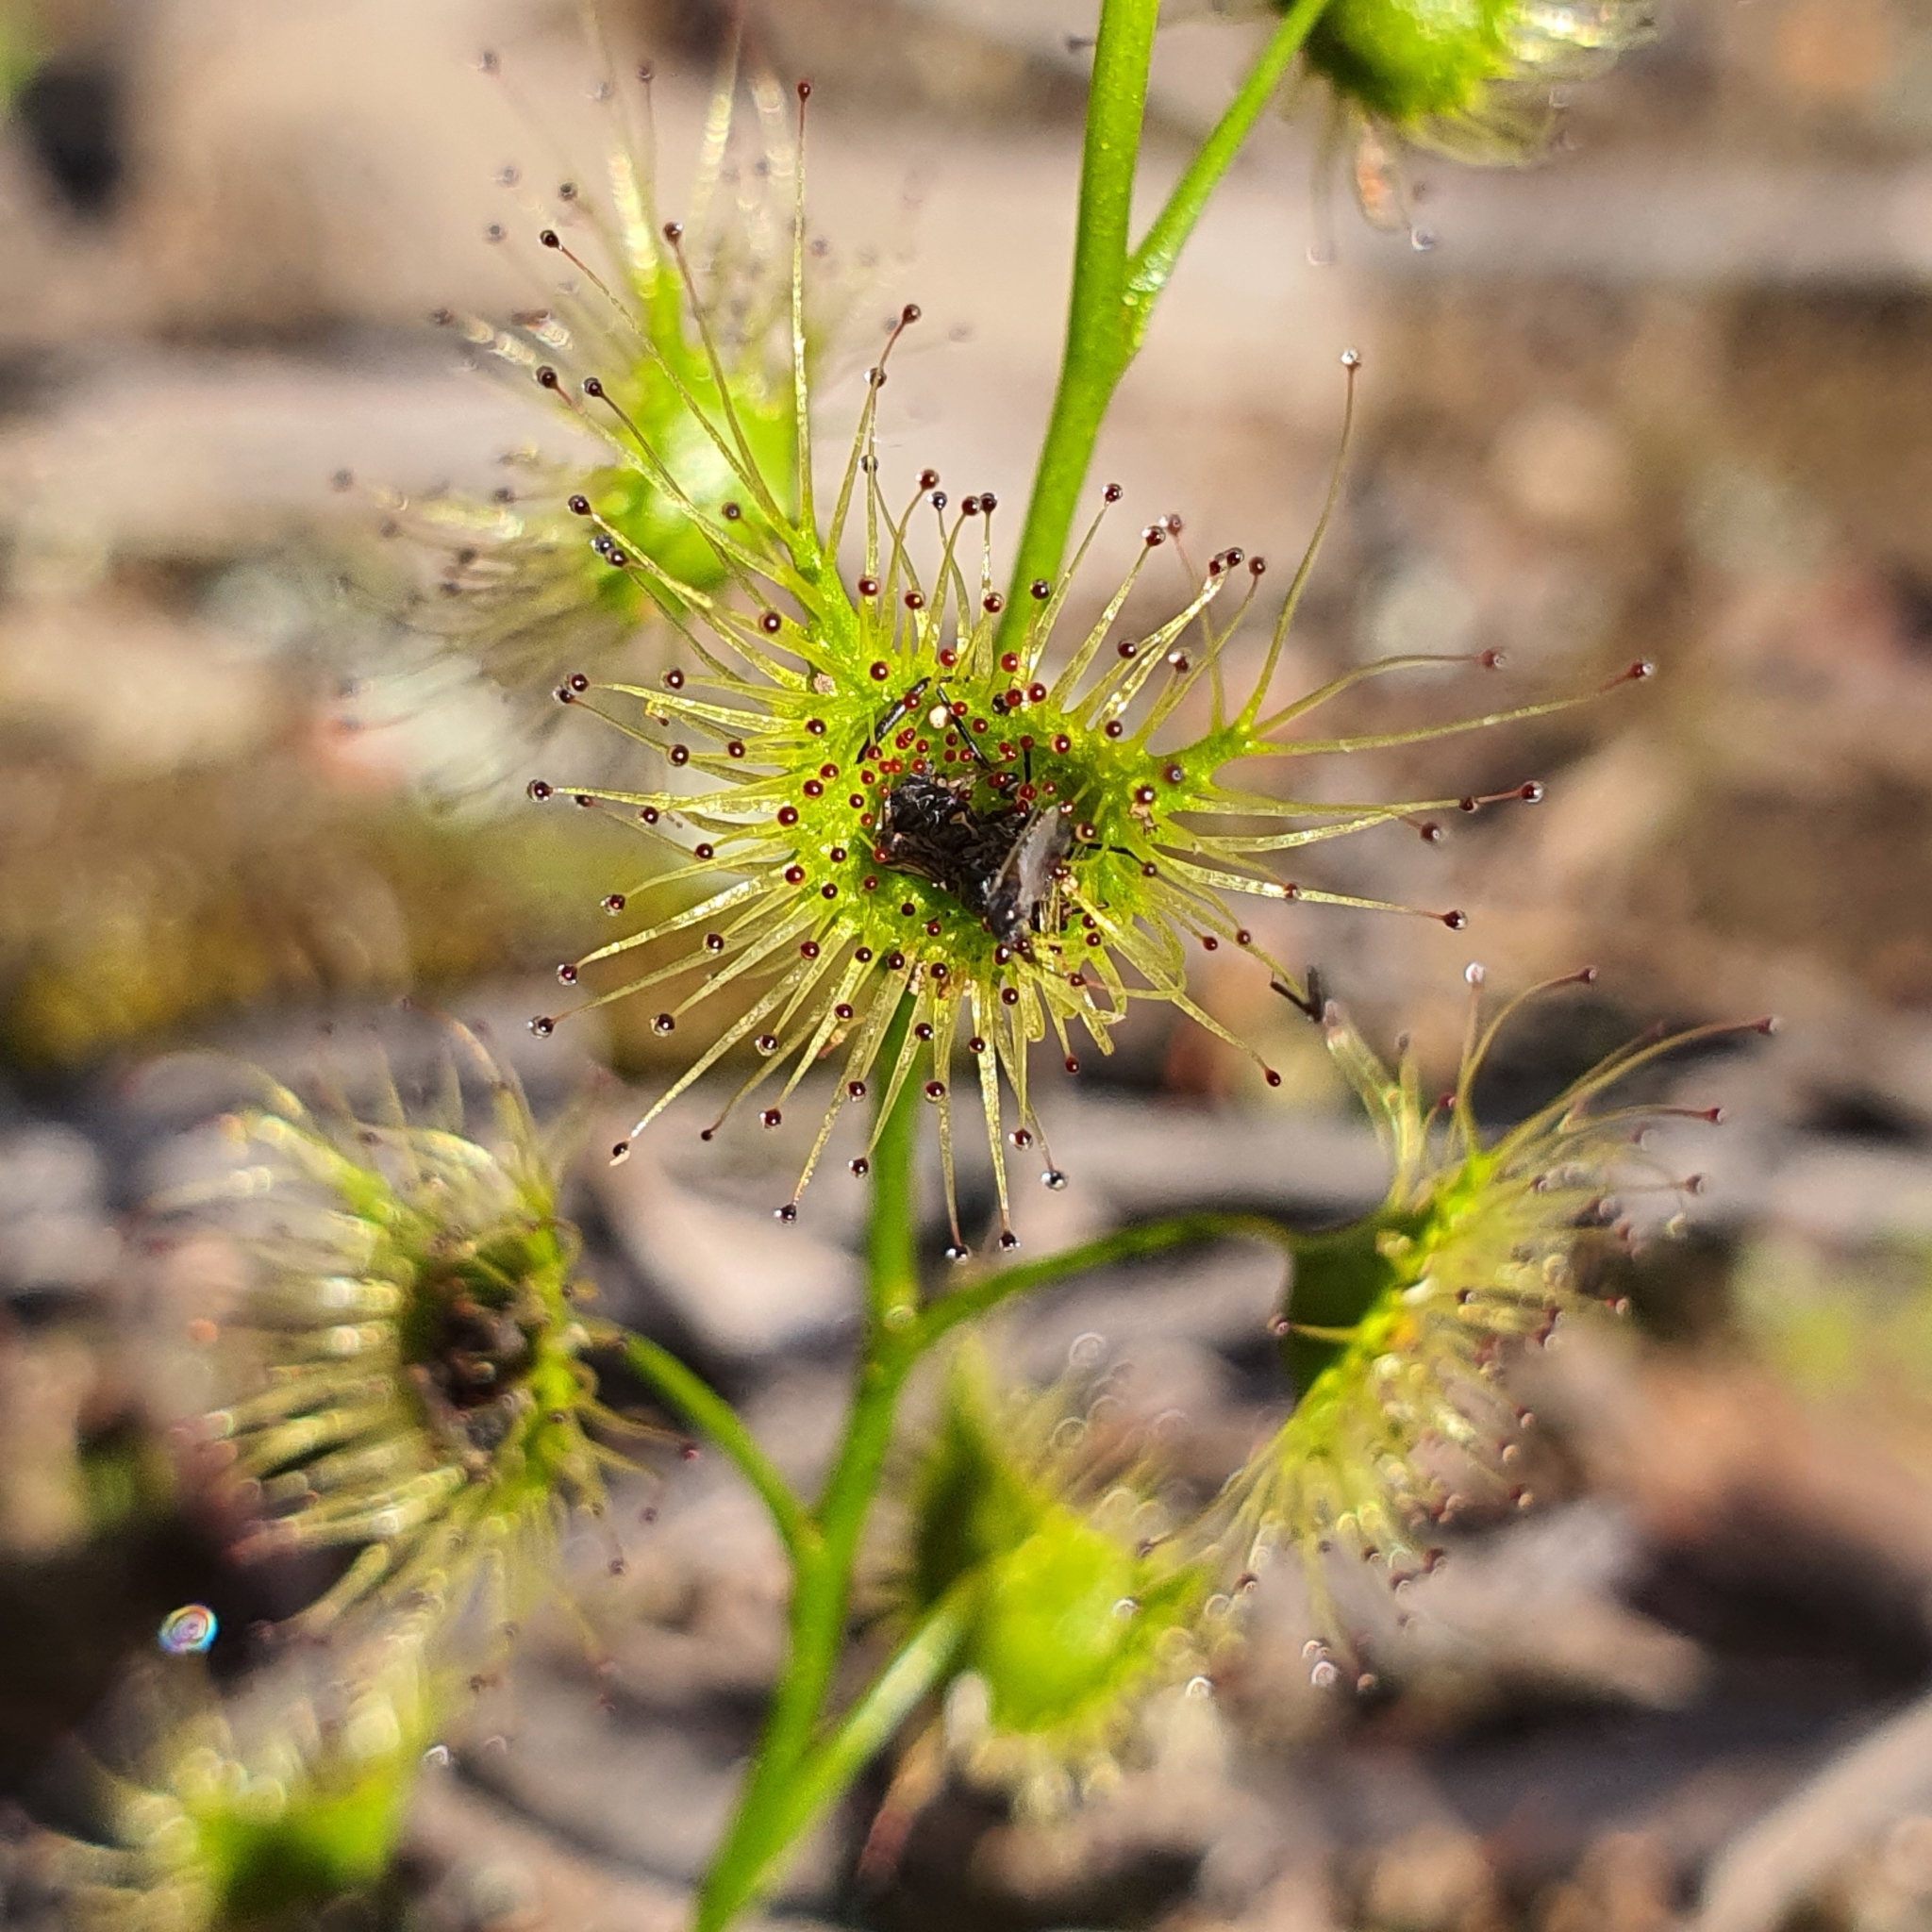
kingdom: Plantae
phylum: Tracheophyta
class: Magnoliopsida
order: Caryophyllales
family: Droseraceae
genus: Drosera
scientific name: Drosera
